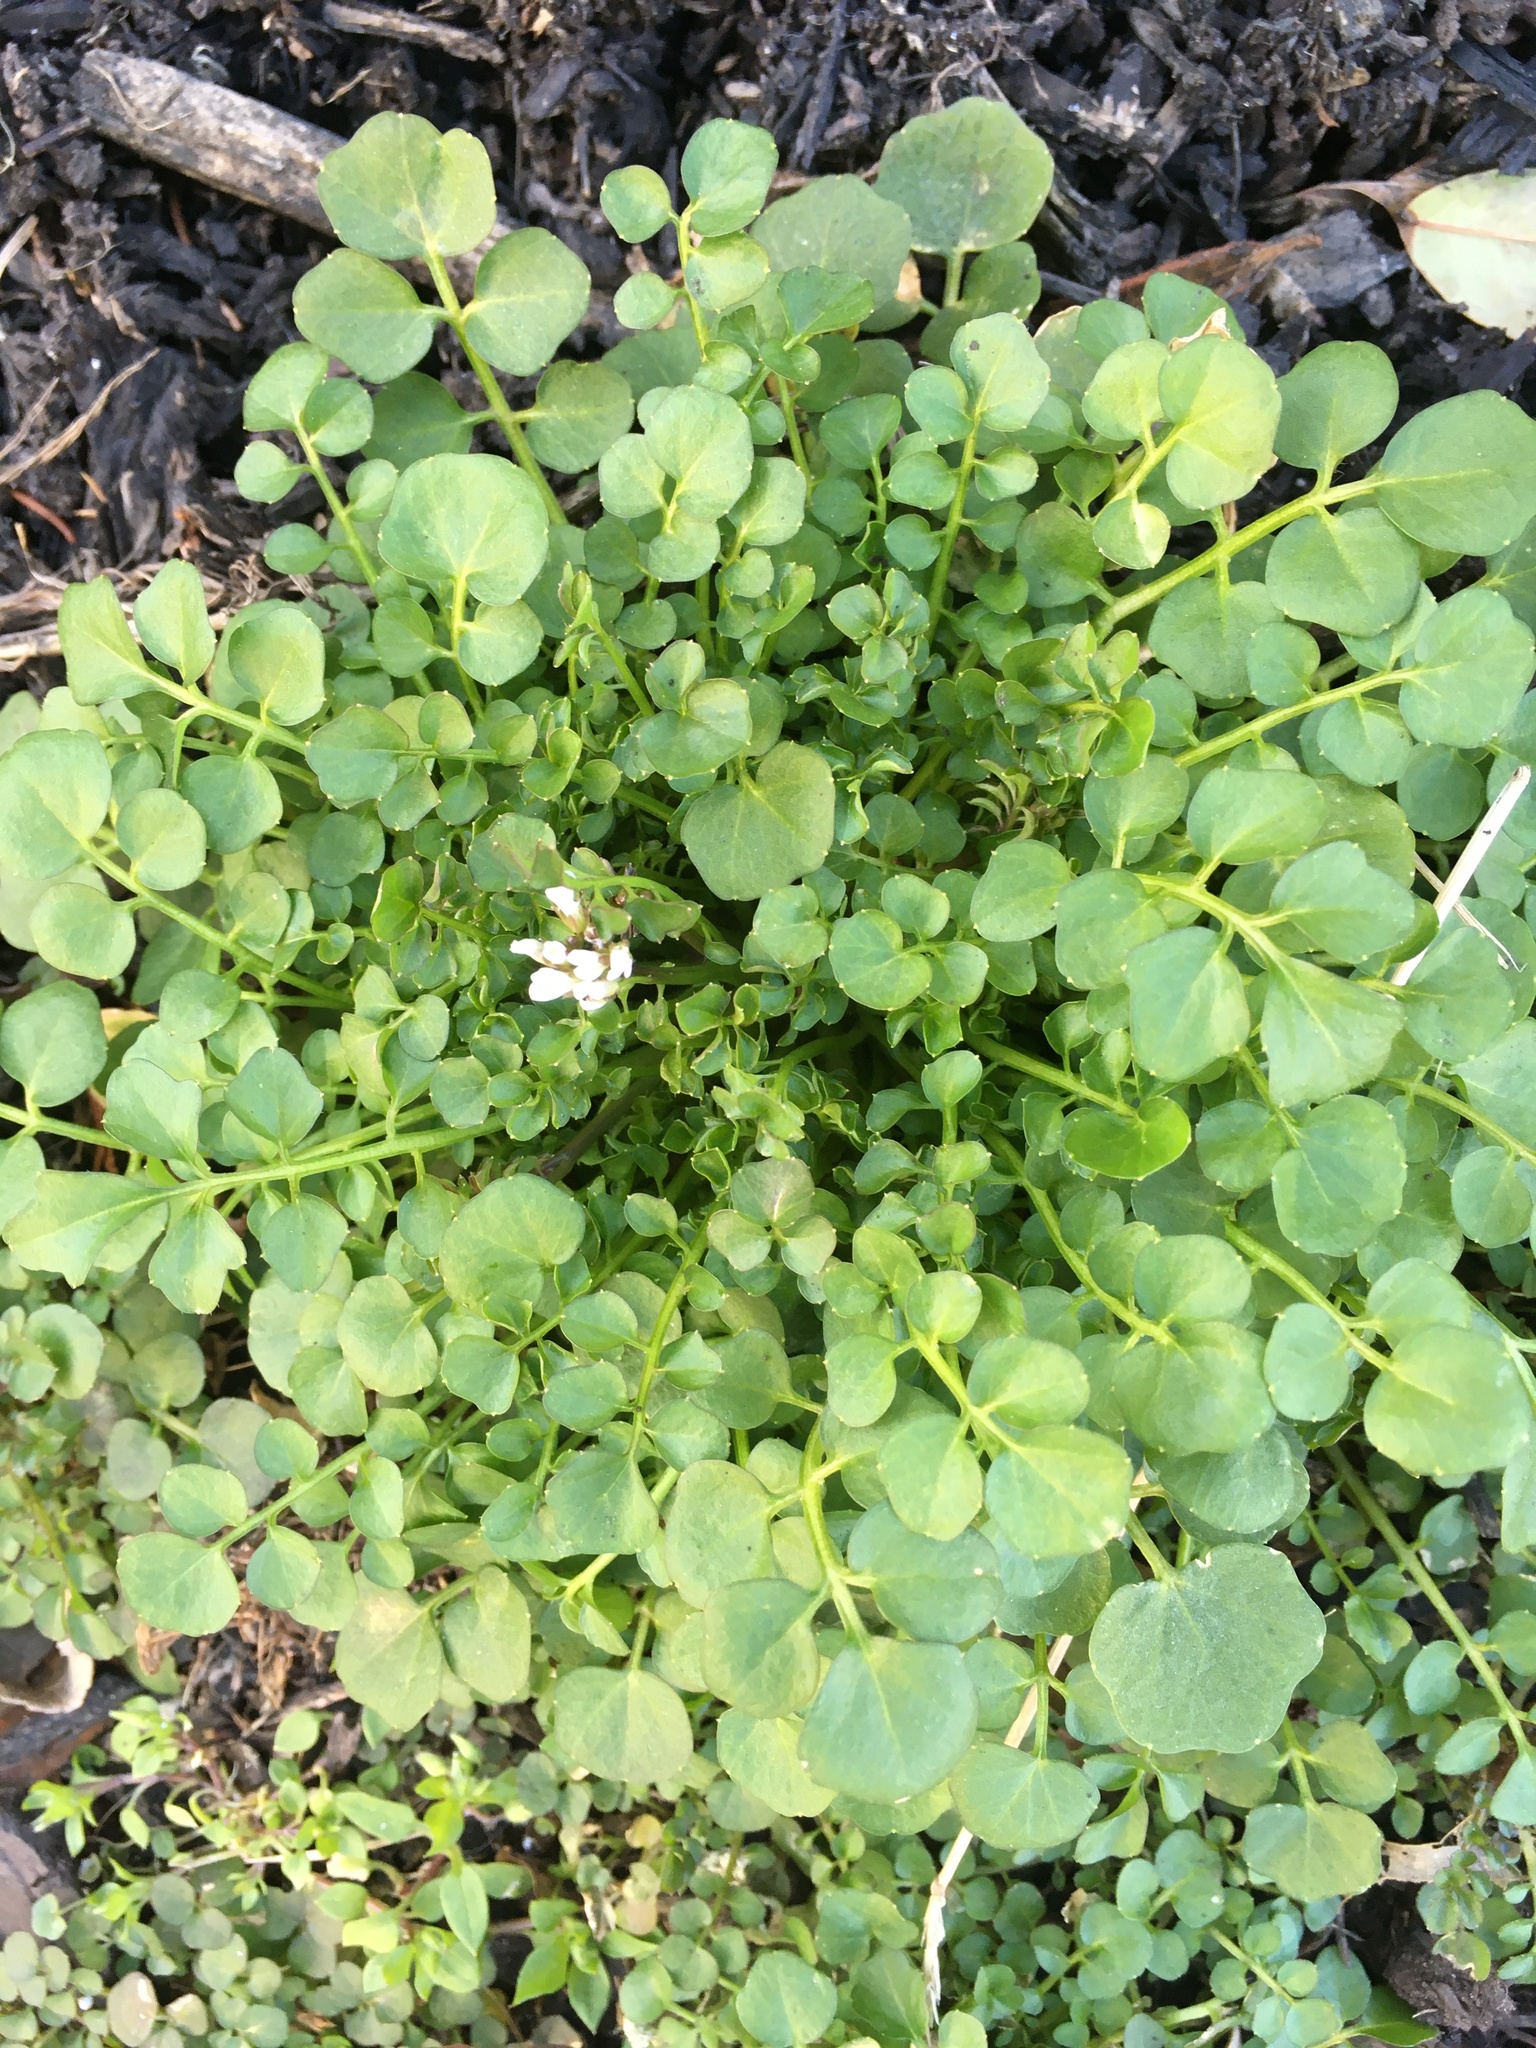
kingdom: Plantae
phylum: Tracheophyta
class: Magnoliopsida
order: Brassicales
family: Brassicaceae
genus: Cardamine
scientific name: Cardamine hirsuta
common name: Hairy bittercress
